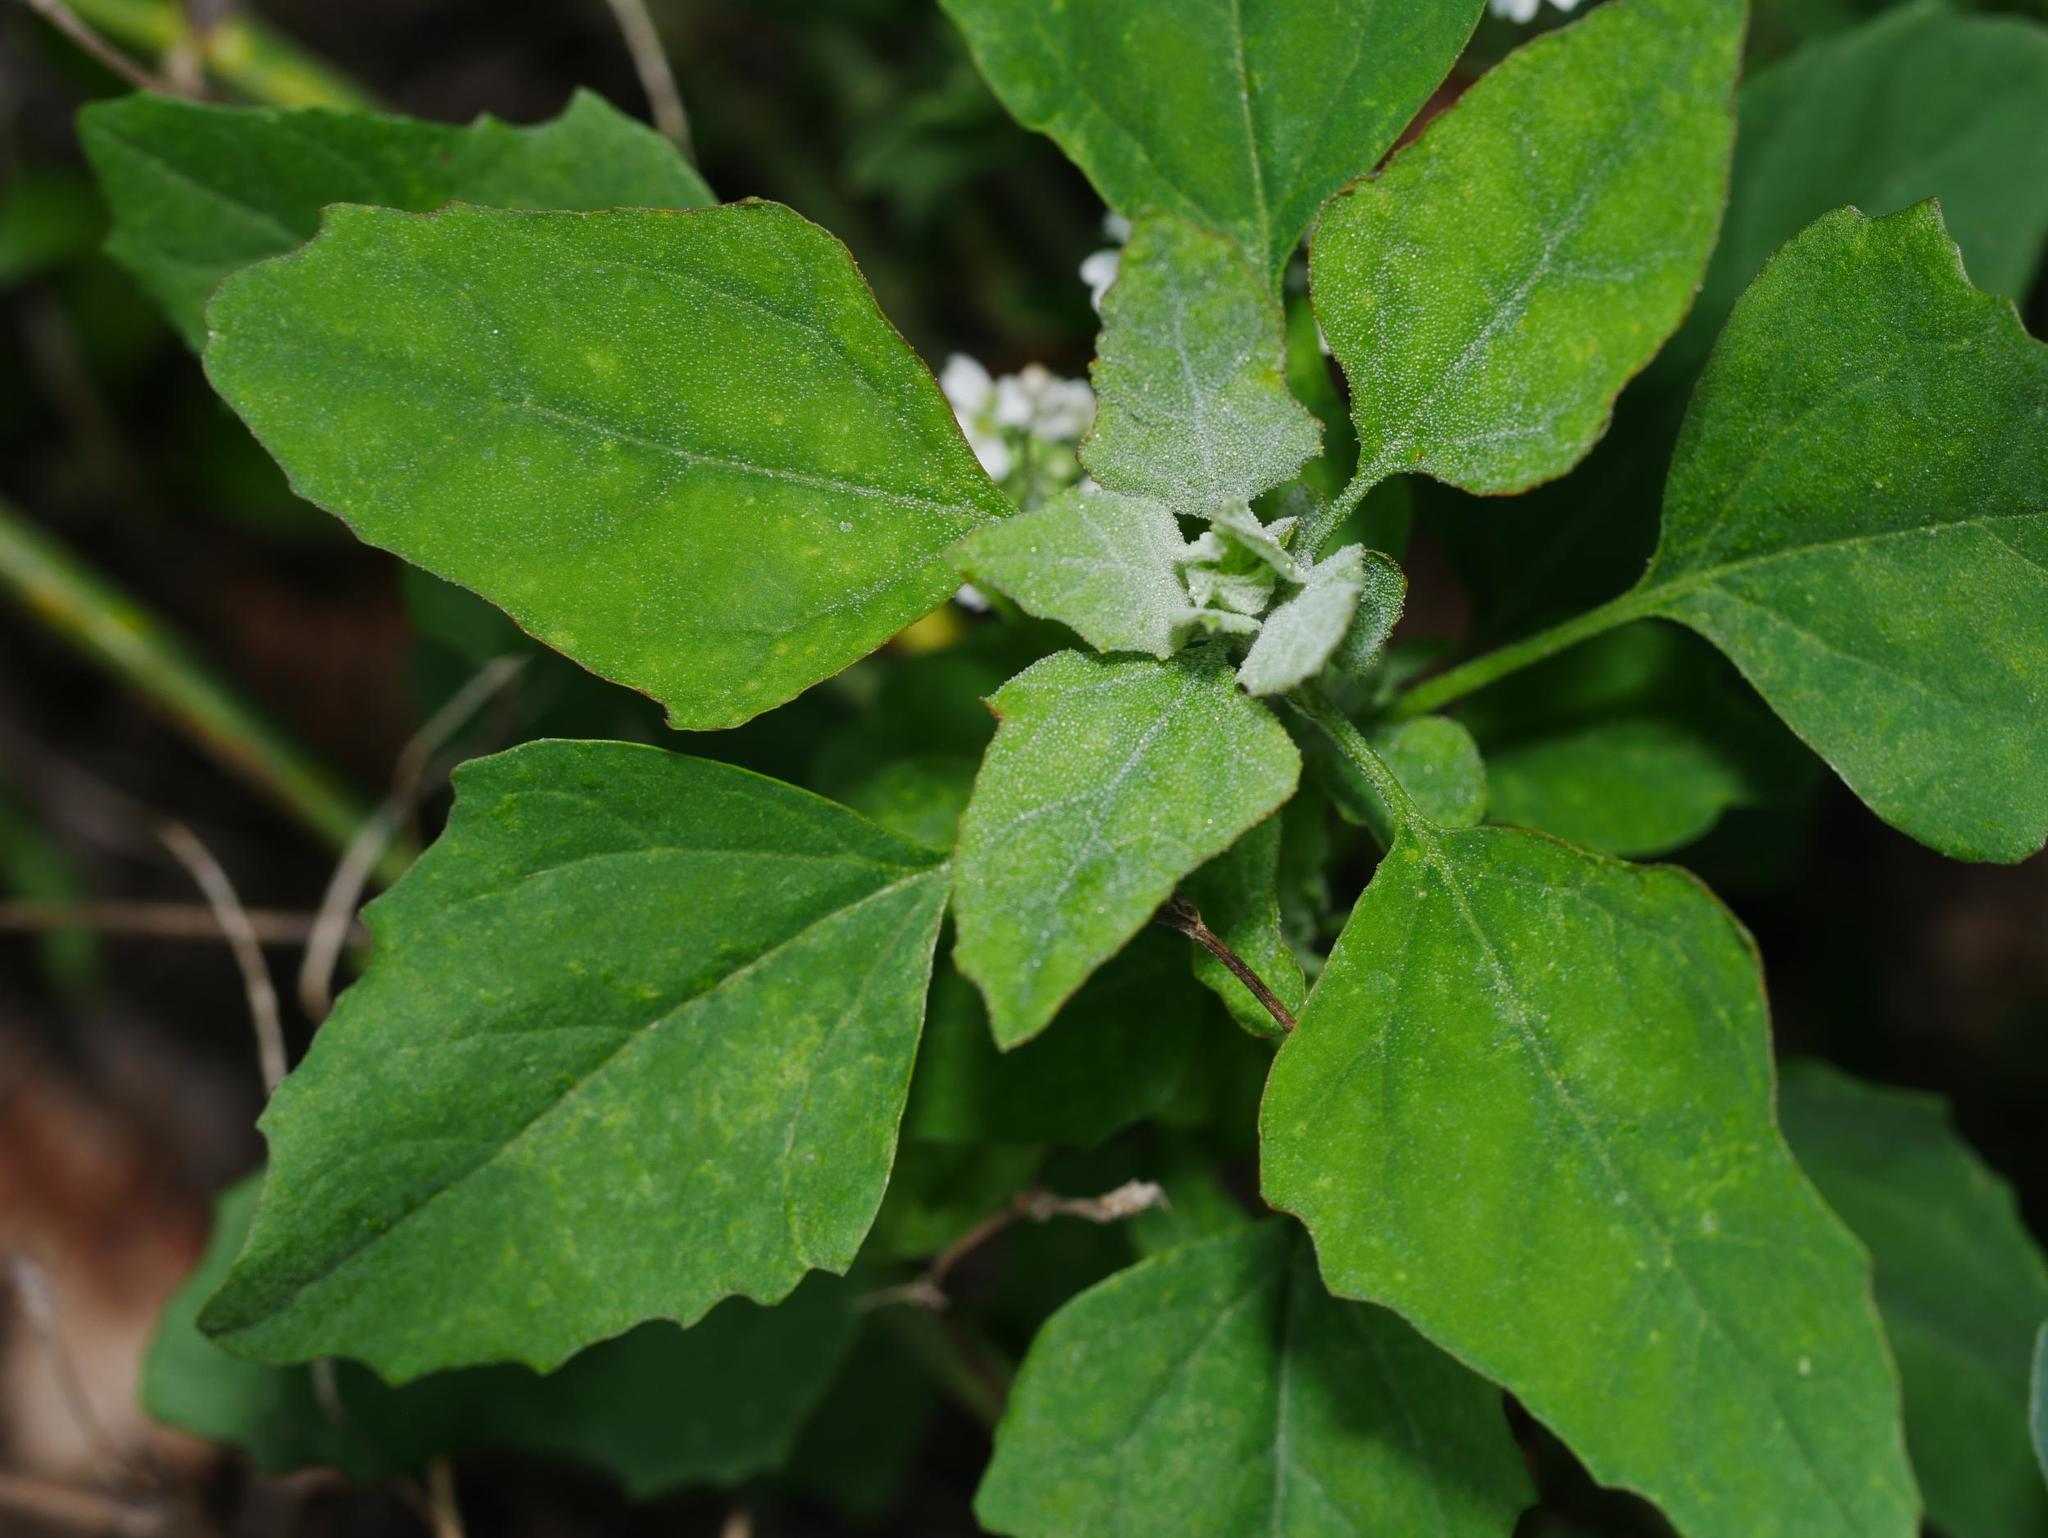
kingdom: Plantae
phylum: Tracheophyta
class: Magnoliopsida
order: Caryophyllales
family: Amaranthaceae
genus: Chenopodium
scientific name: Chenopodium album
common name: Fat-hen
